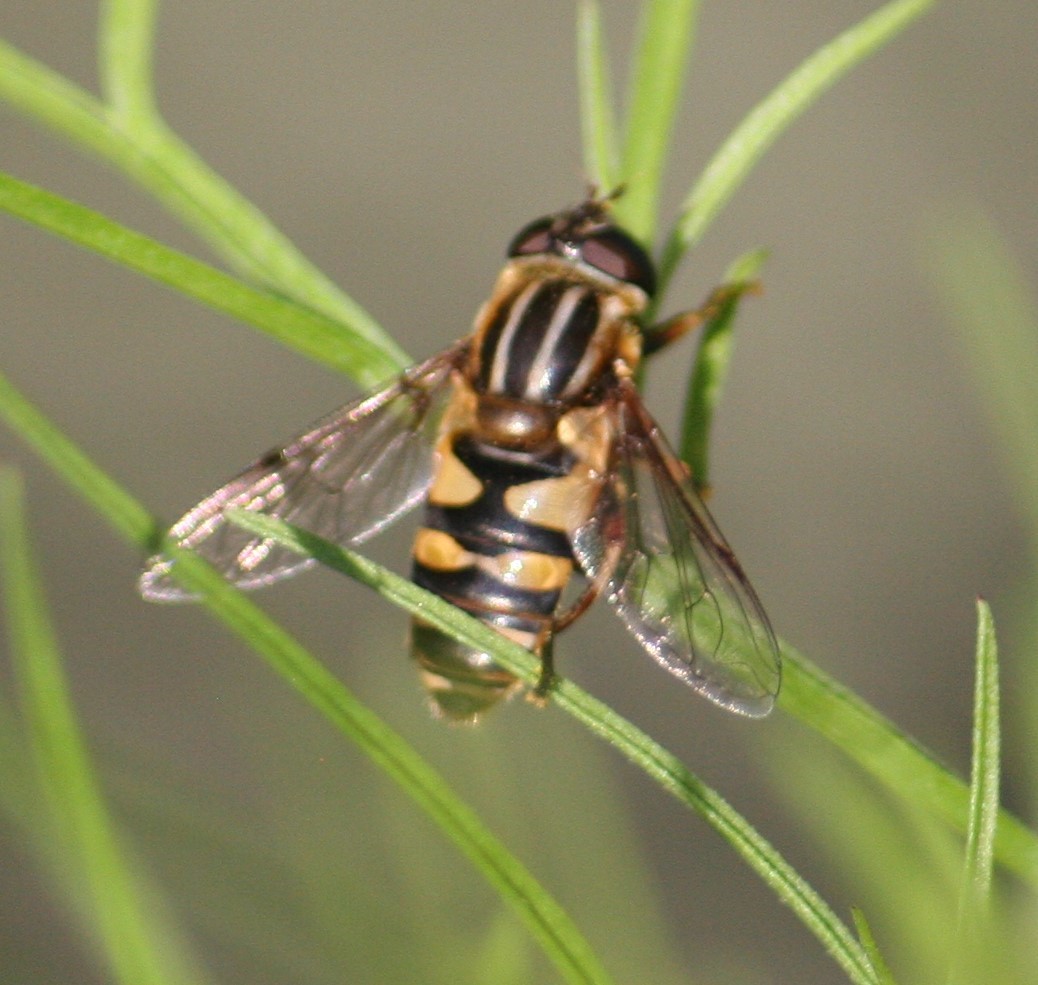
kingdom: Animalia
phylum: Arthropoda
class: Insecta
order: Diptera
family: Syrphidae
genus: Helophilus
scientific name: Helophilus fasciatus
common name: Narrow-headed marsh fly
